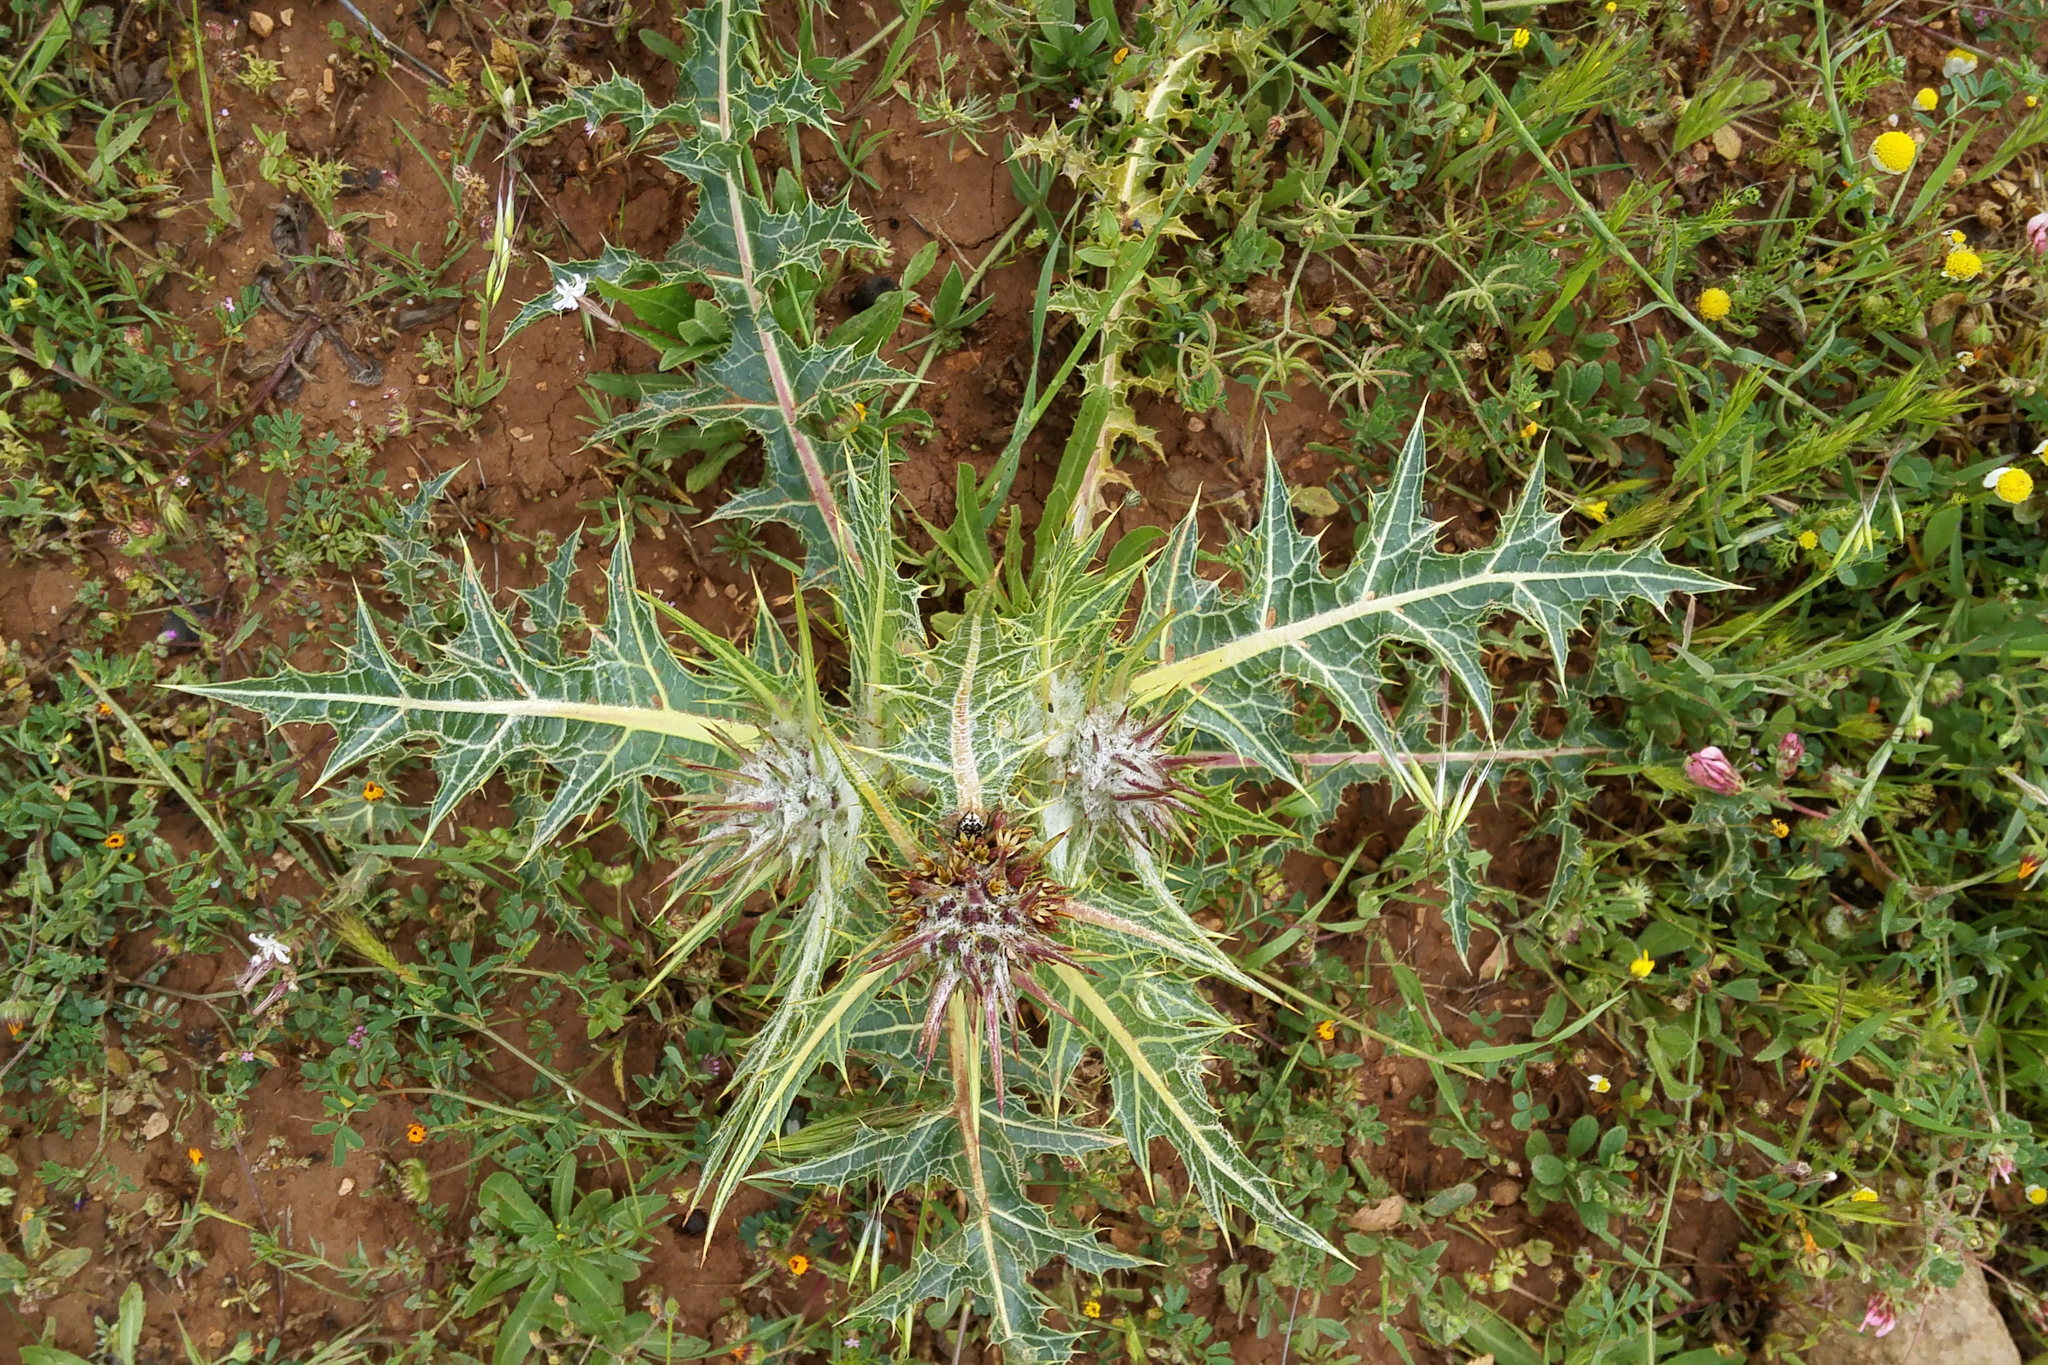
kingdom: Plantae
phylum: Tracheophyta
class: Magnoliopsida
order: Asterales
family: Asteraceae
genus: Gundelia
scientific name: Gundelia tournefortii
